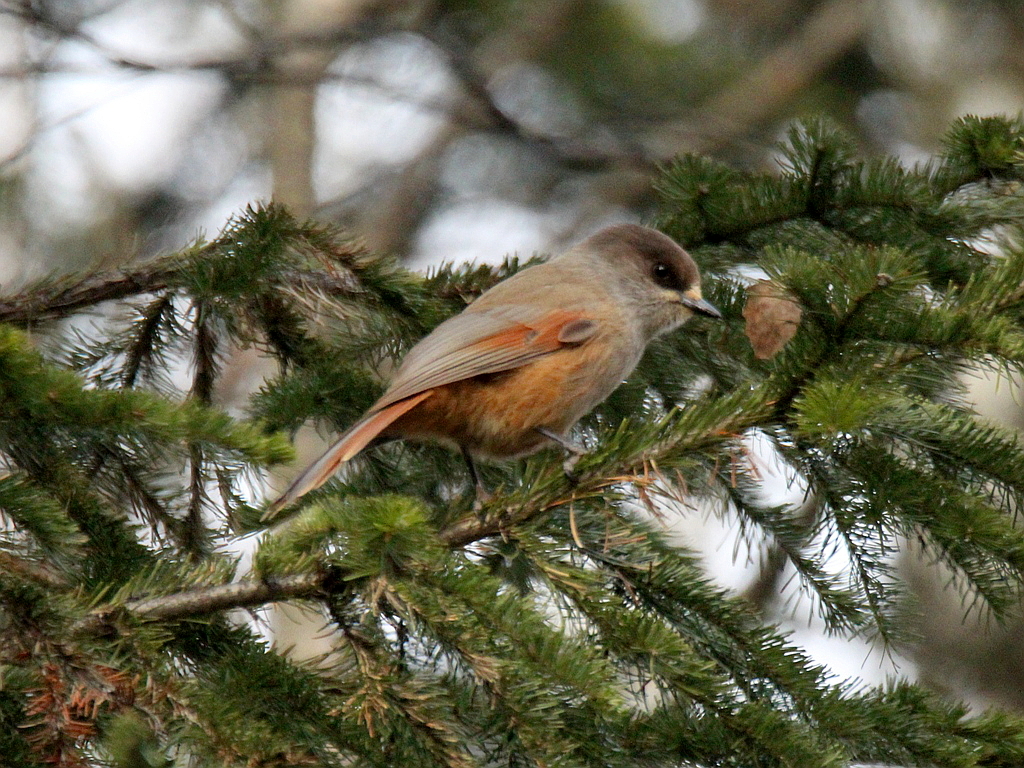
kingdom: Animalia
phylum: Chordata
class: Aves
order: Passeriformes
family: Corvidae
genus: Perisoreus
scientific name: Perisoreus infaustus
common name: Siberian jay
